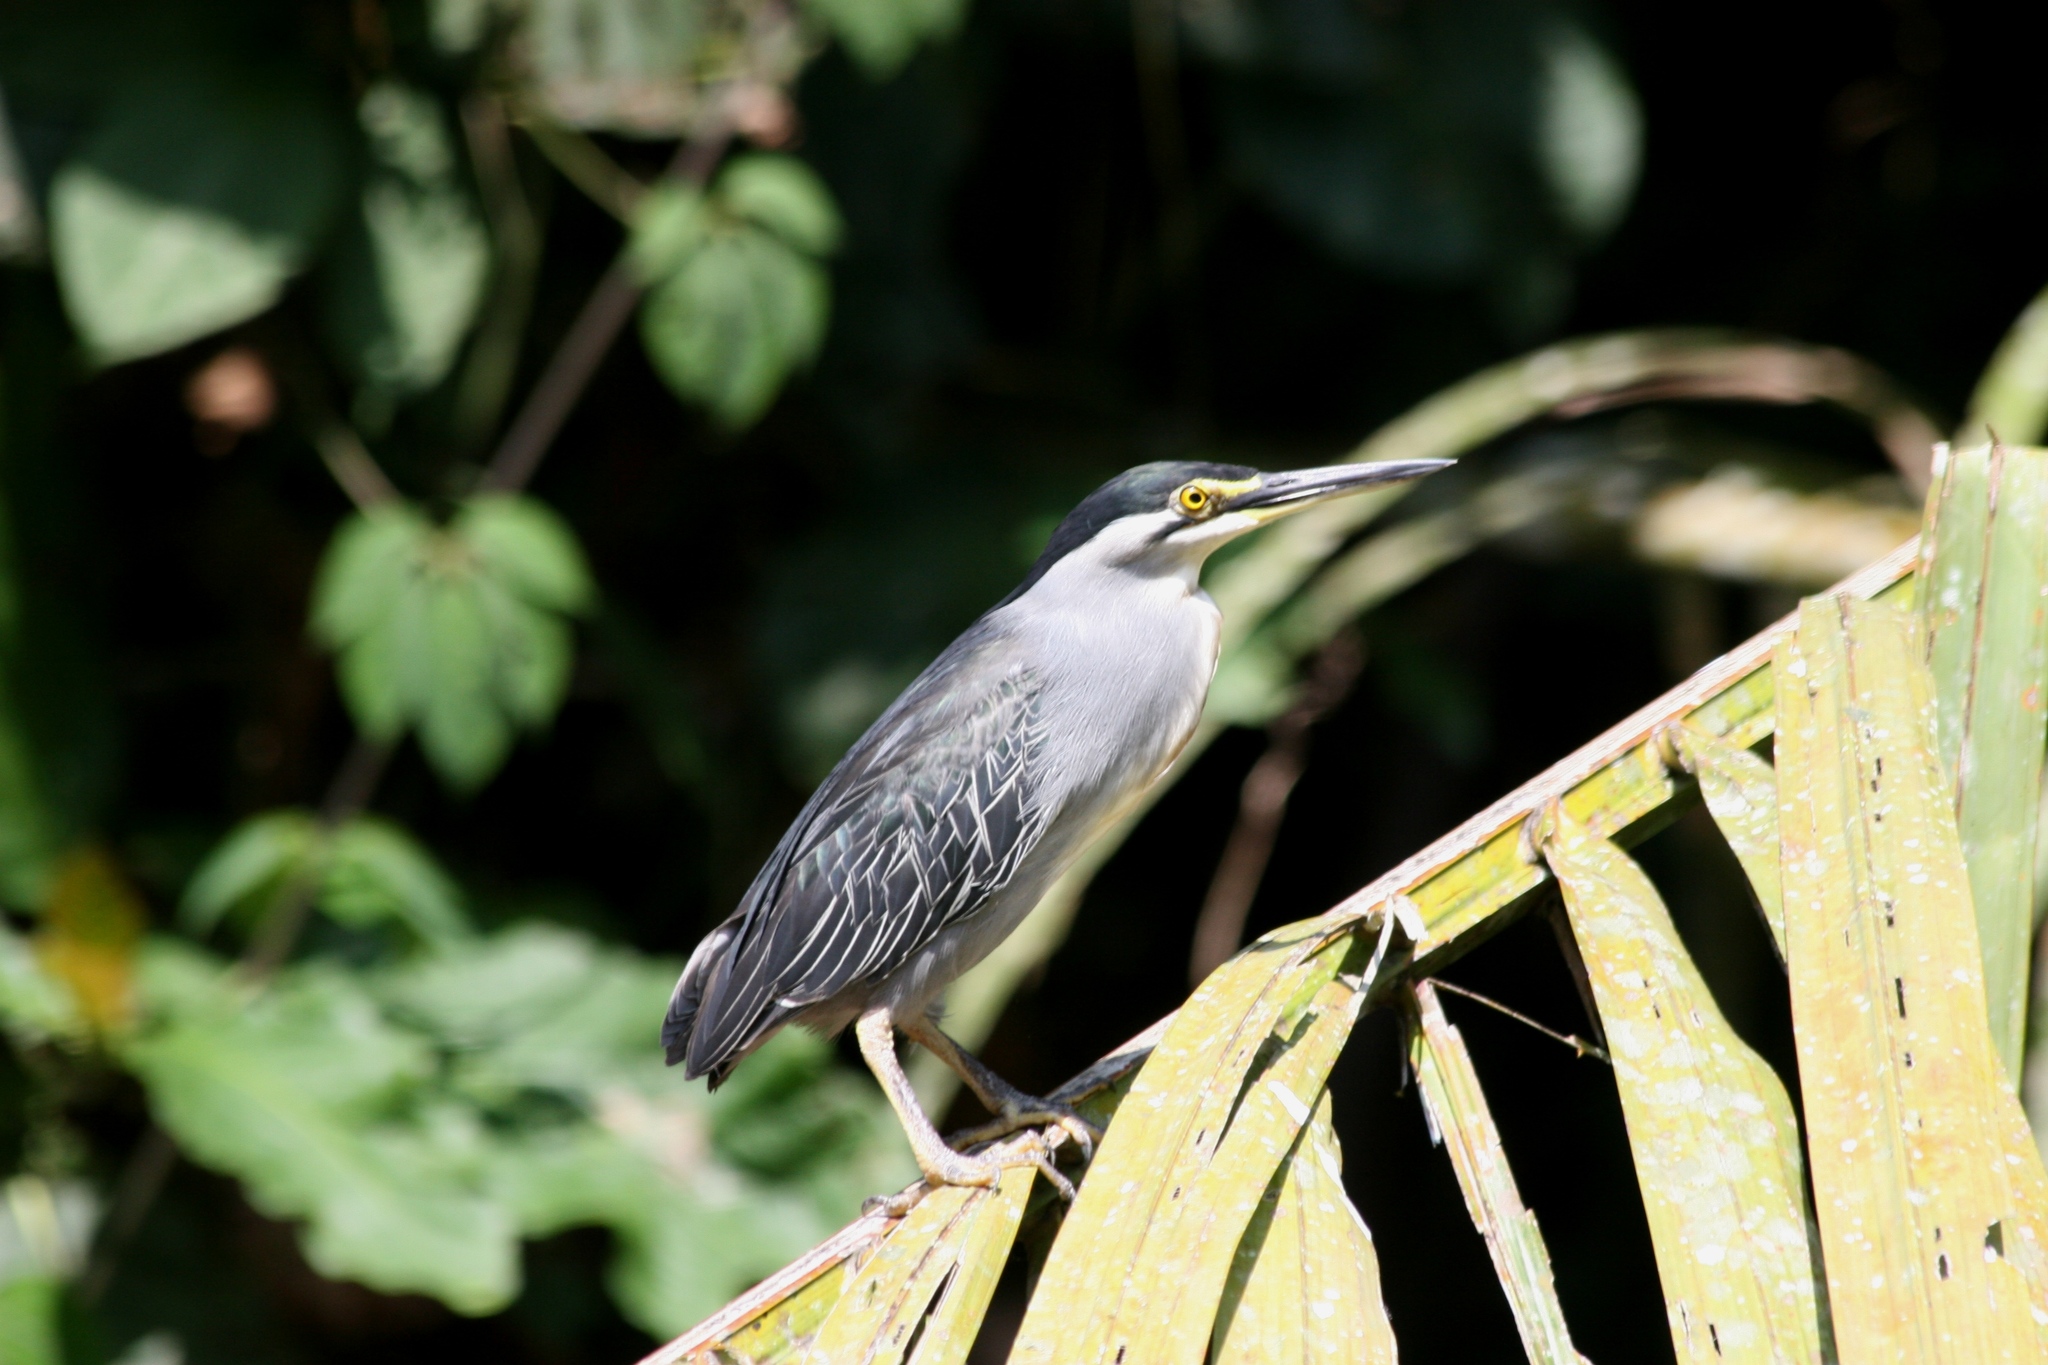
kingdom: Animalia
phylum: Chordata
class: Aves
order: Pelecaniformes
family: Ardeidae
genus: Butorides
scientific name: Butorides striata
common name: Striated heron
